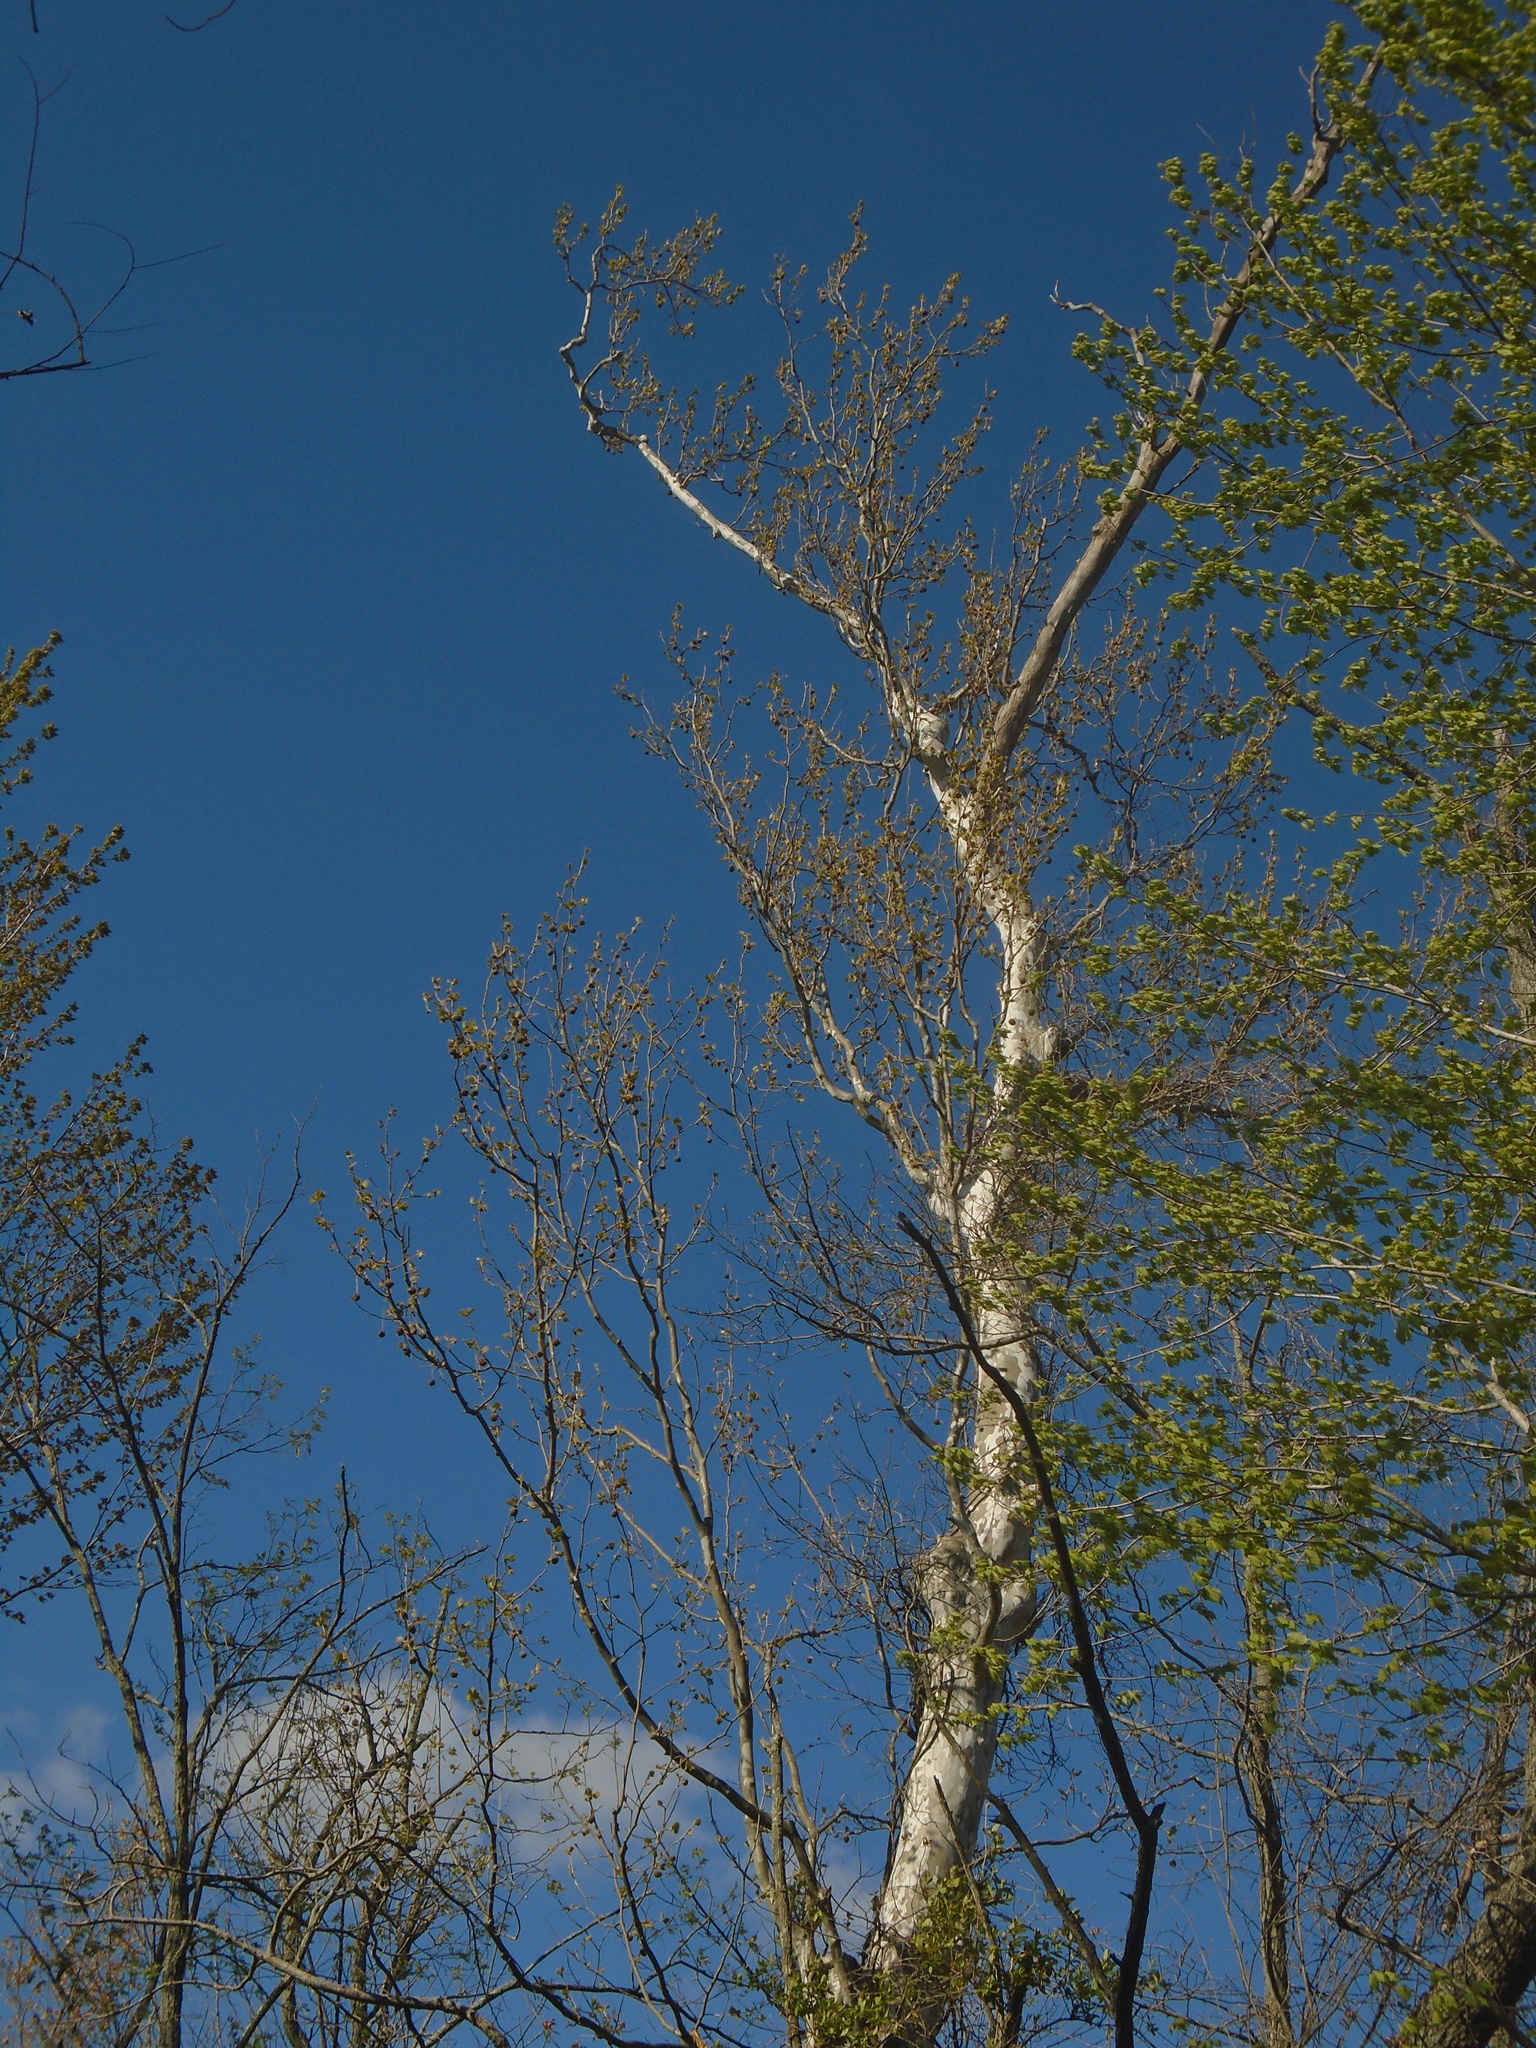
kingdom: Plantae
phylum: Tracheophyta
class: Magnoliopsida
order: Proteales
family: Platanaceae
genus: Platanus
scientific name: Platanus occidentalis
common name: American sycamore
